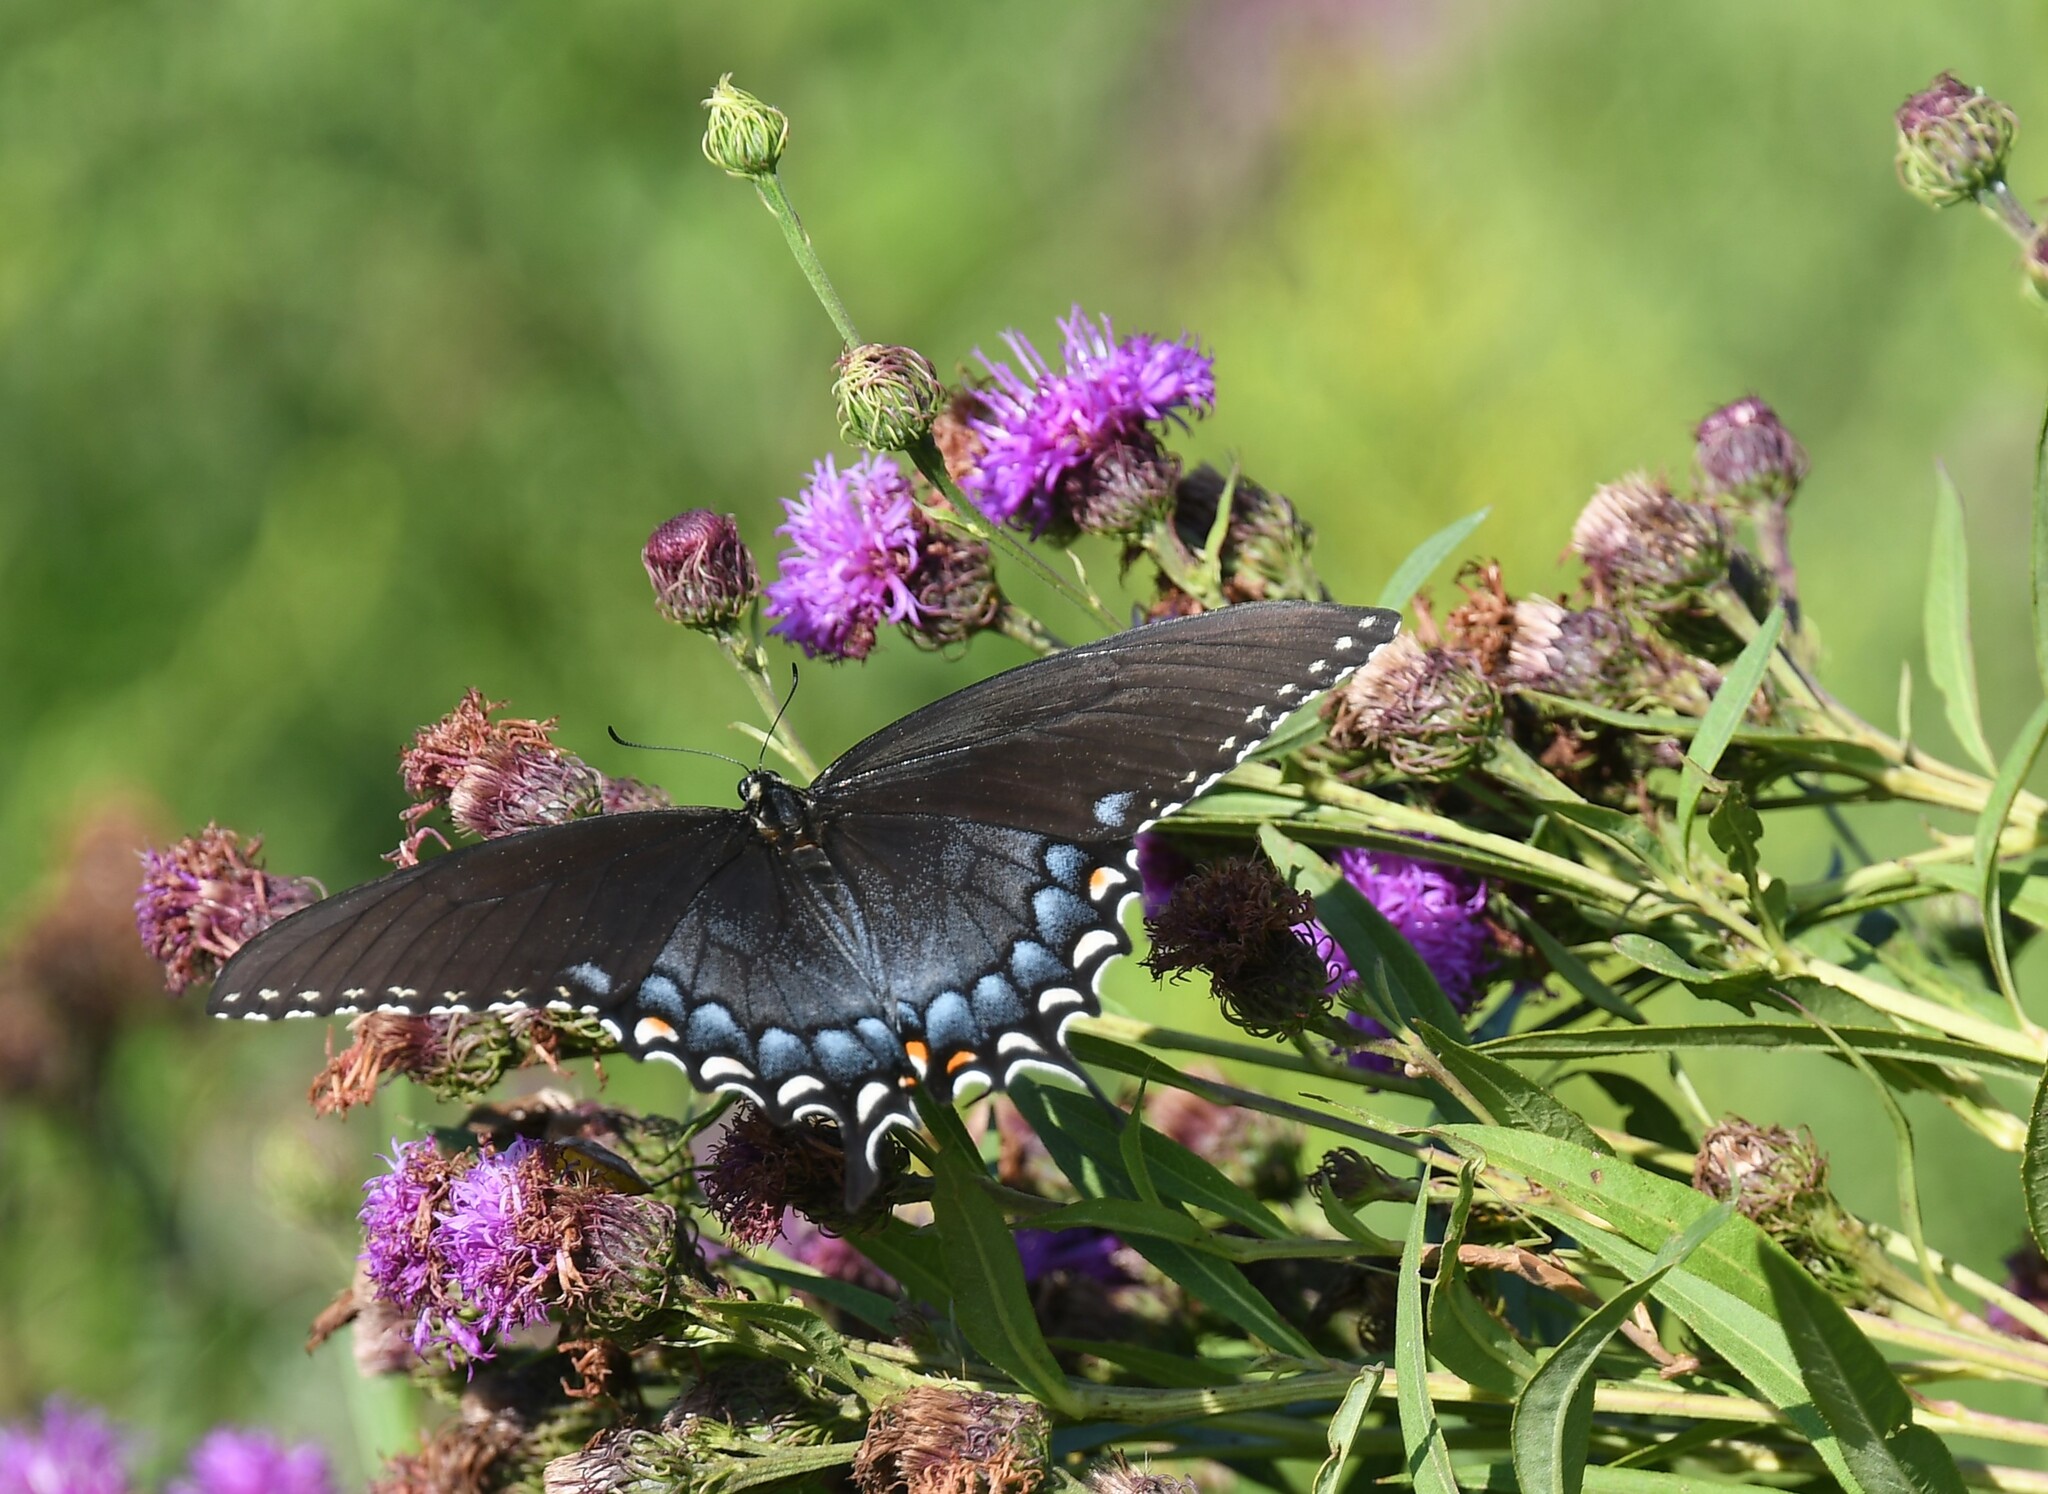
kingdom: Animalia
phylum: Arthropoda
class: Insecta
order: Lepidoptera
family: Papilionidae
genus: Papilio
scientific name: Papilio glaucus
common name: Tiger swallowtail
